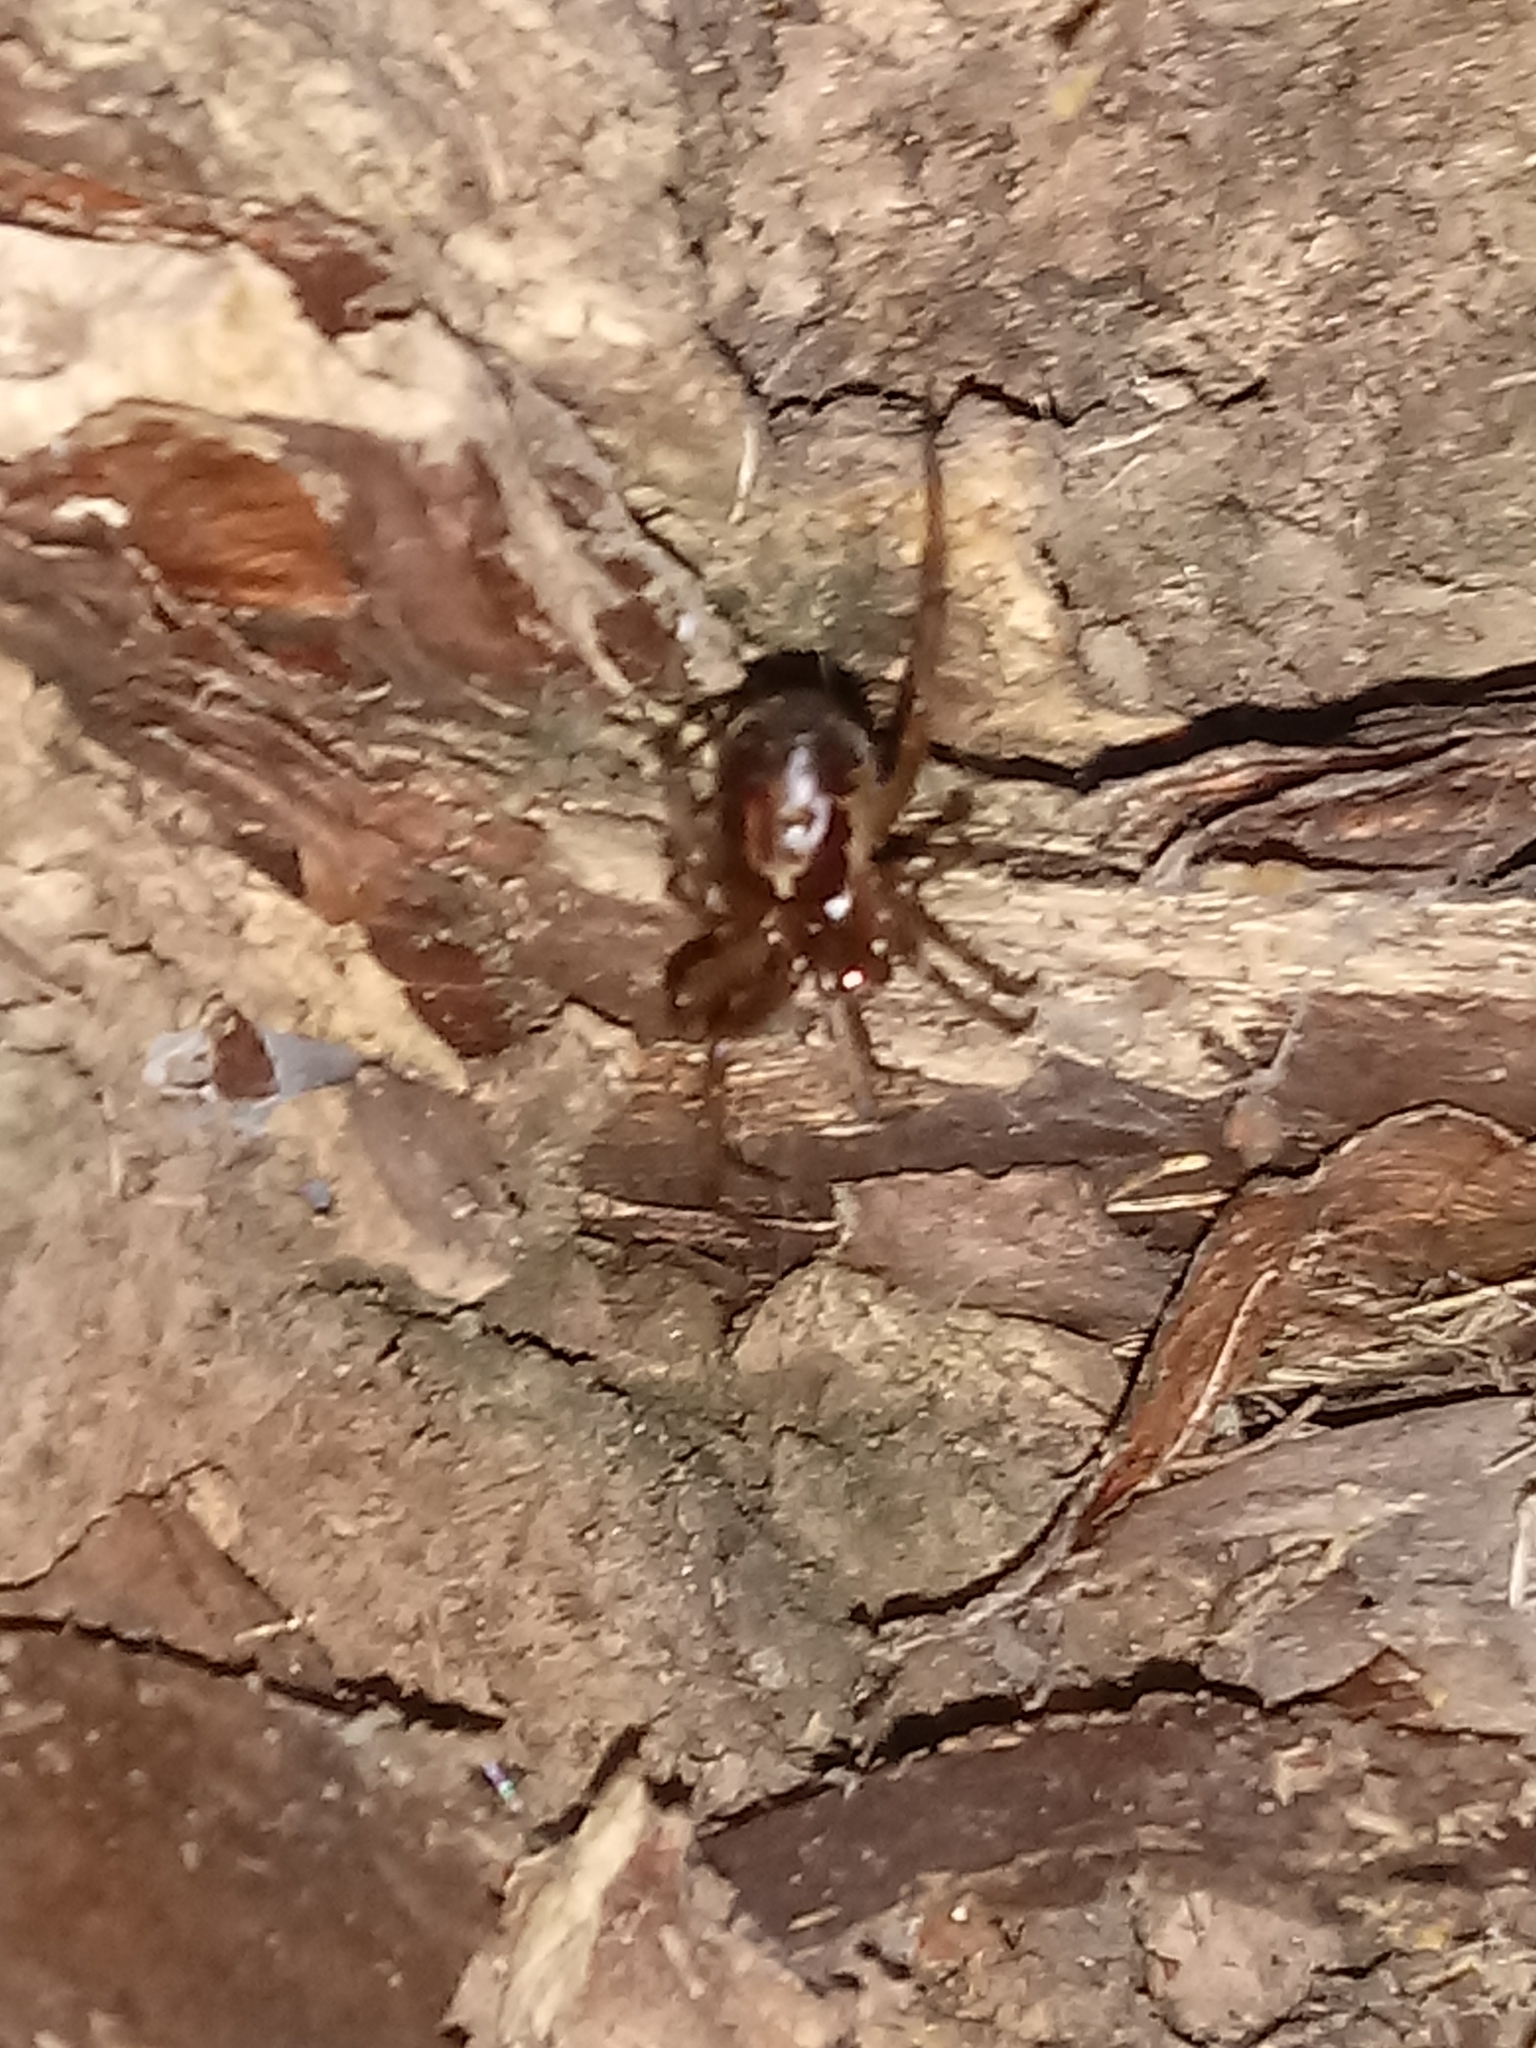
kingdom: Animalia
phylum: Arthropoda
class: Arachnida
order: Araneae
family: Theridiidae
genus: Steatoda
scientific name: Steatoda nobilis
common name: Cobweb weaver
